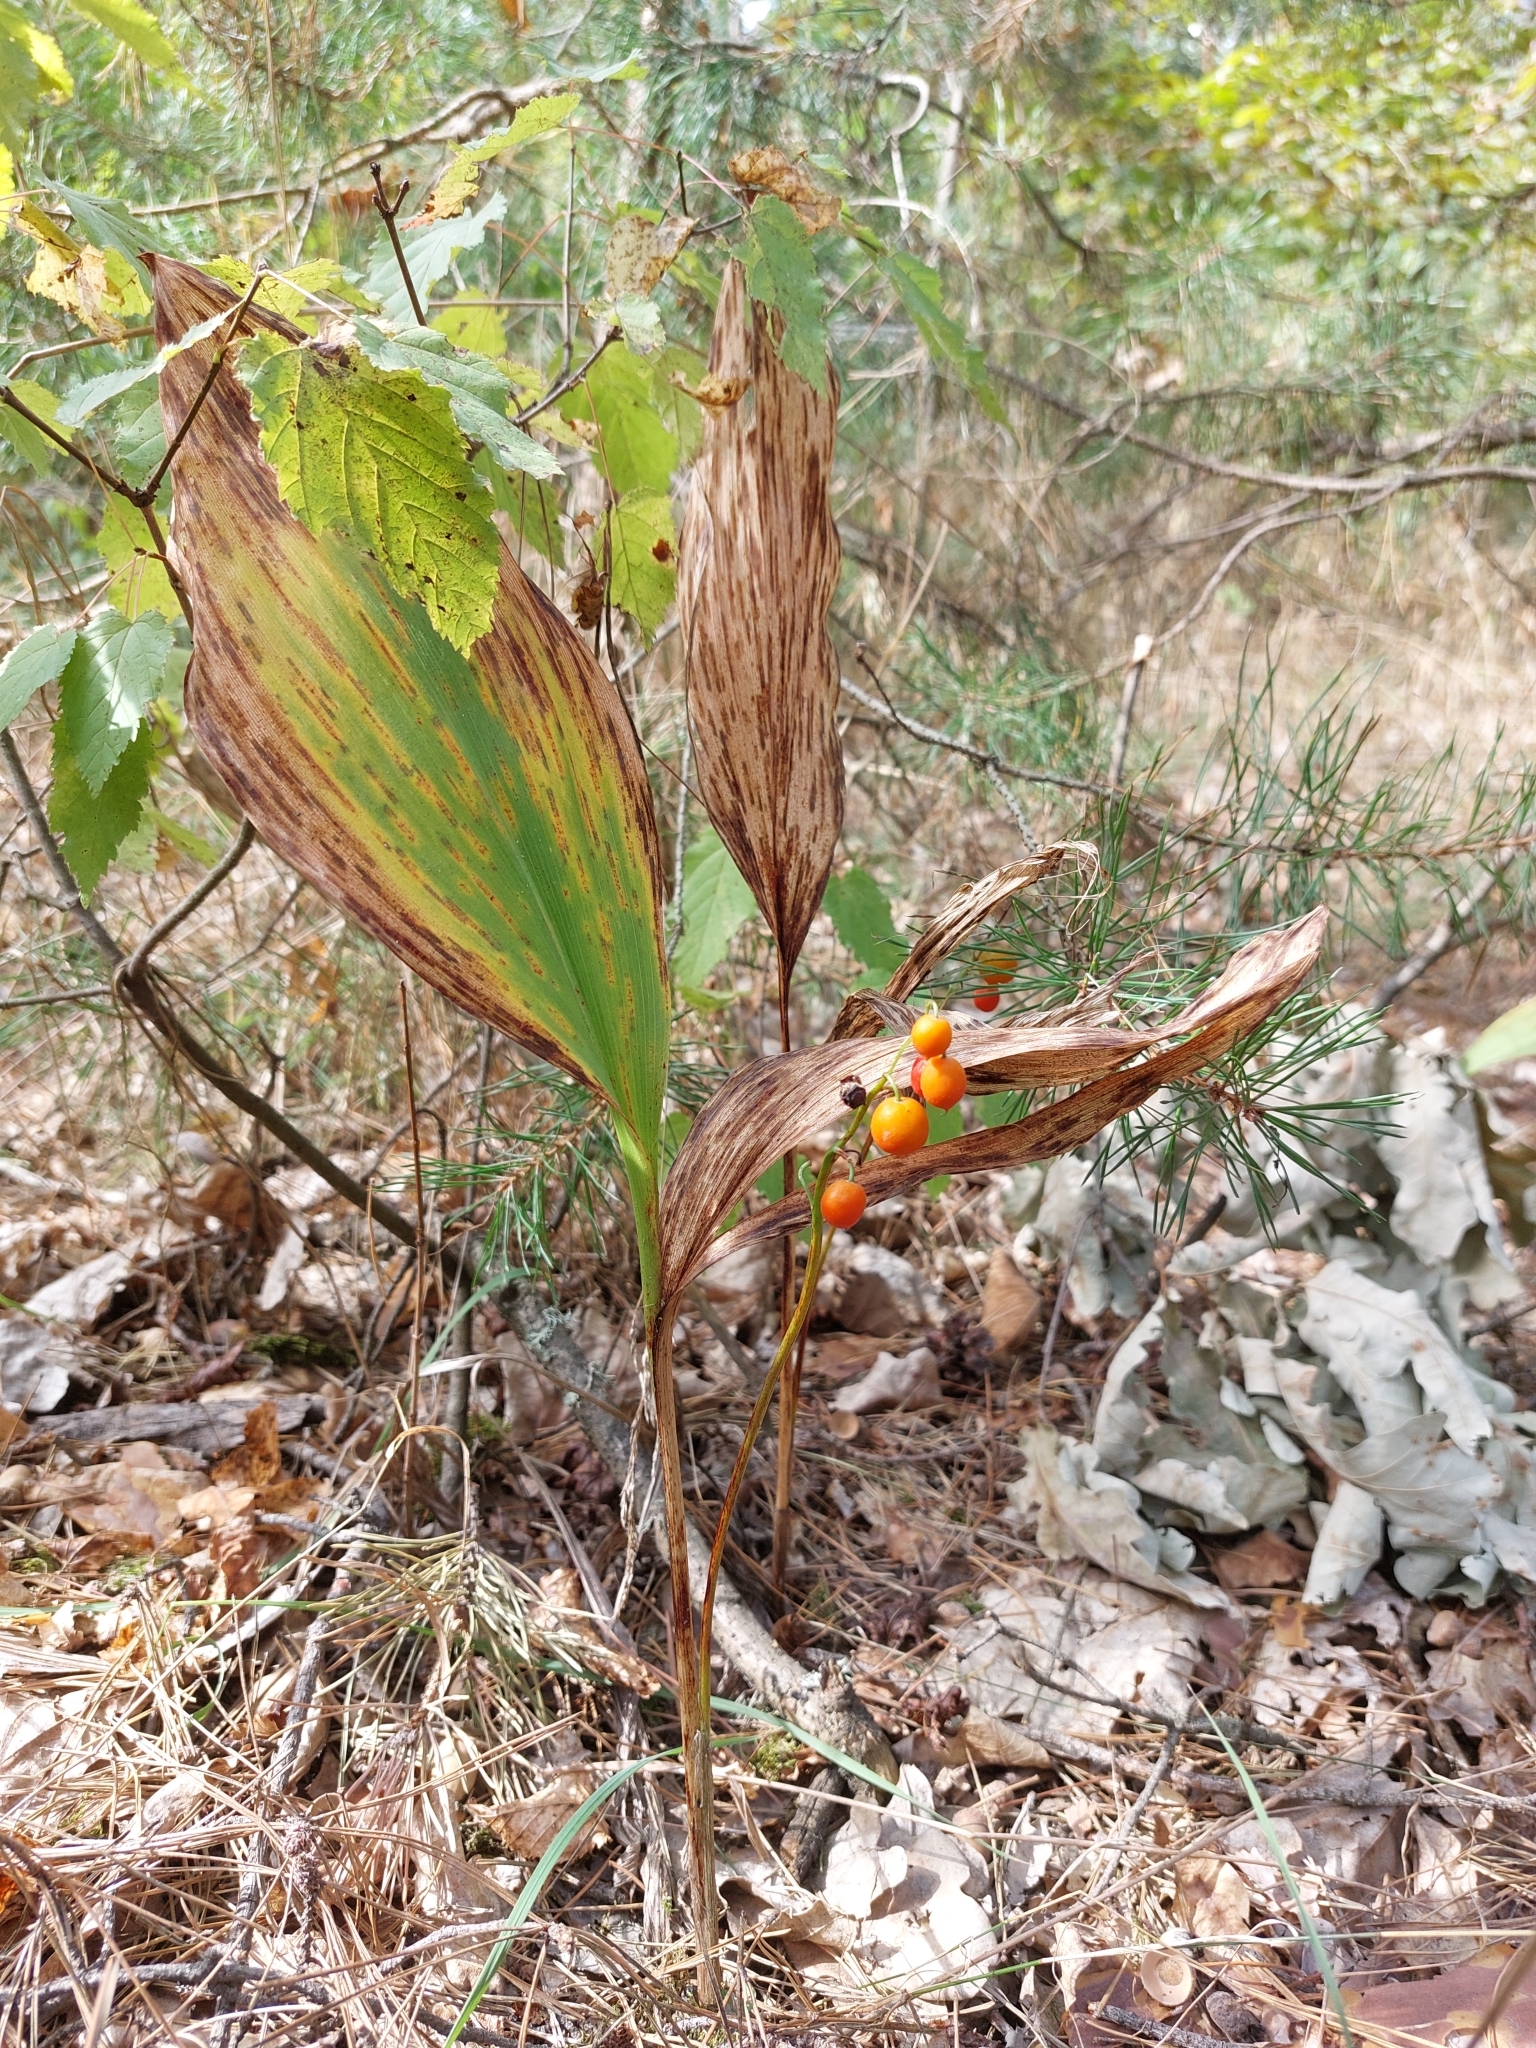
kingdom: Plantae
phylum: Tracheophyta
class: Liliopsida
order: Asparagales
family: Asparagaceae
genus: Convallaria
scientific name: Convallaria majalis
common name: Lily-of-the-valley
